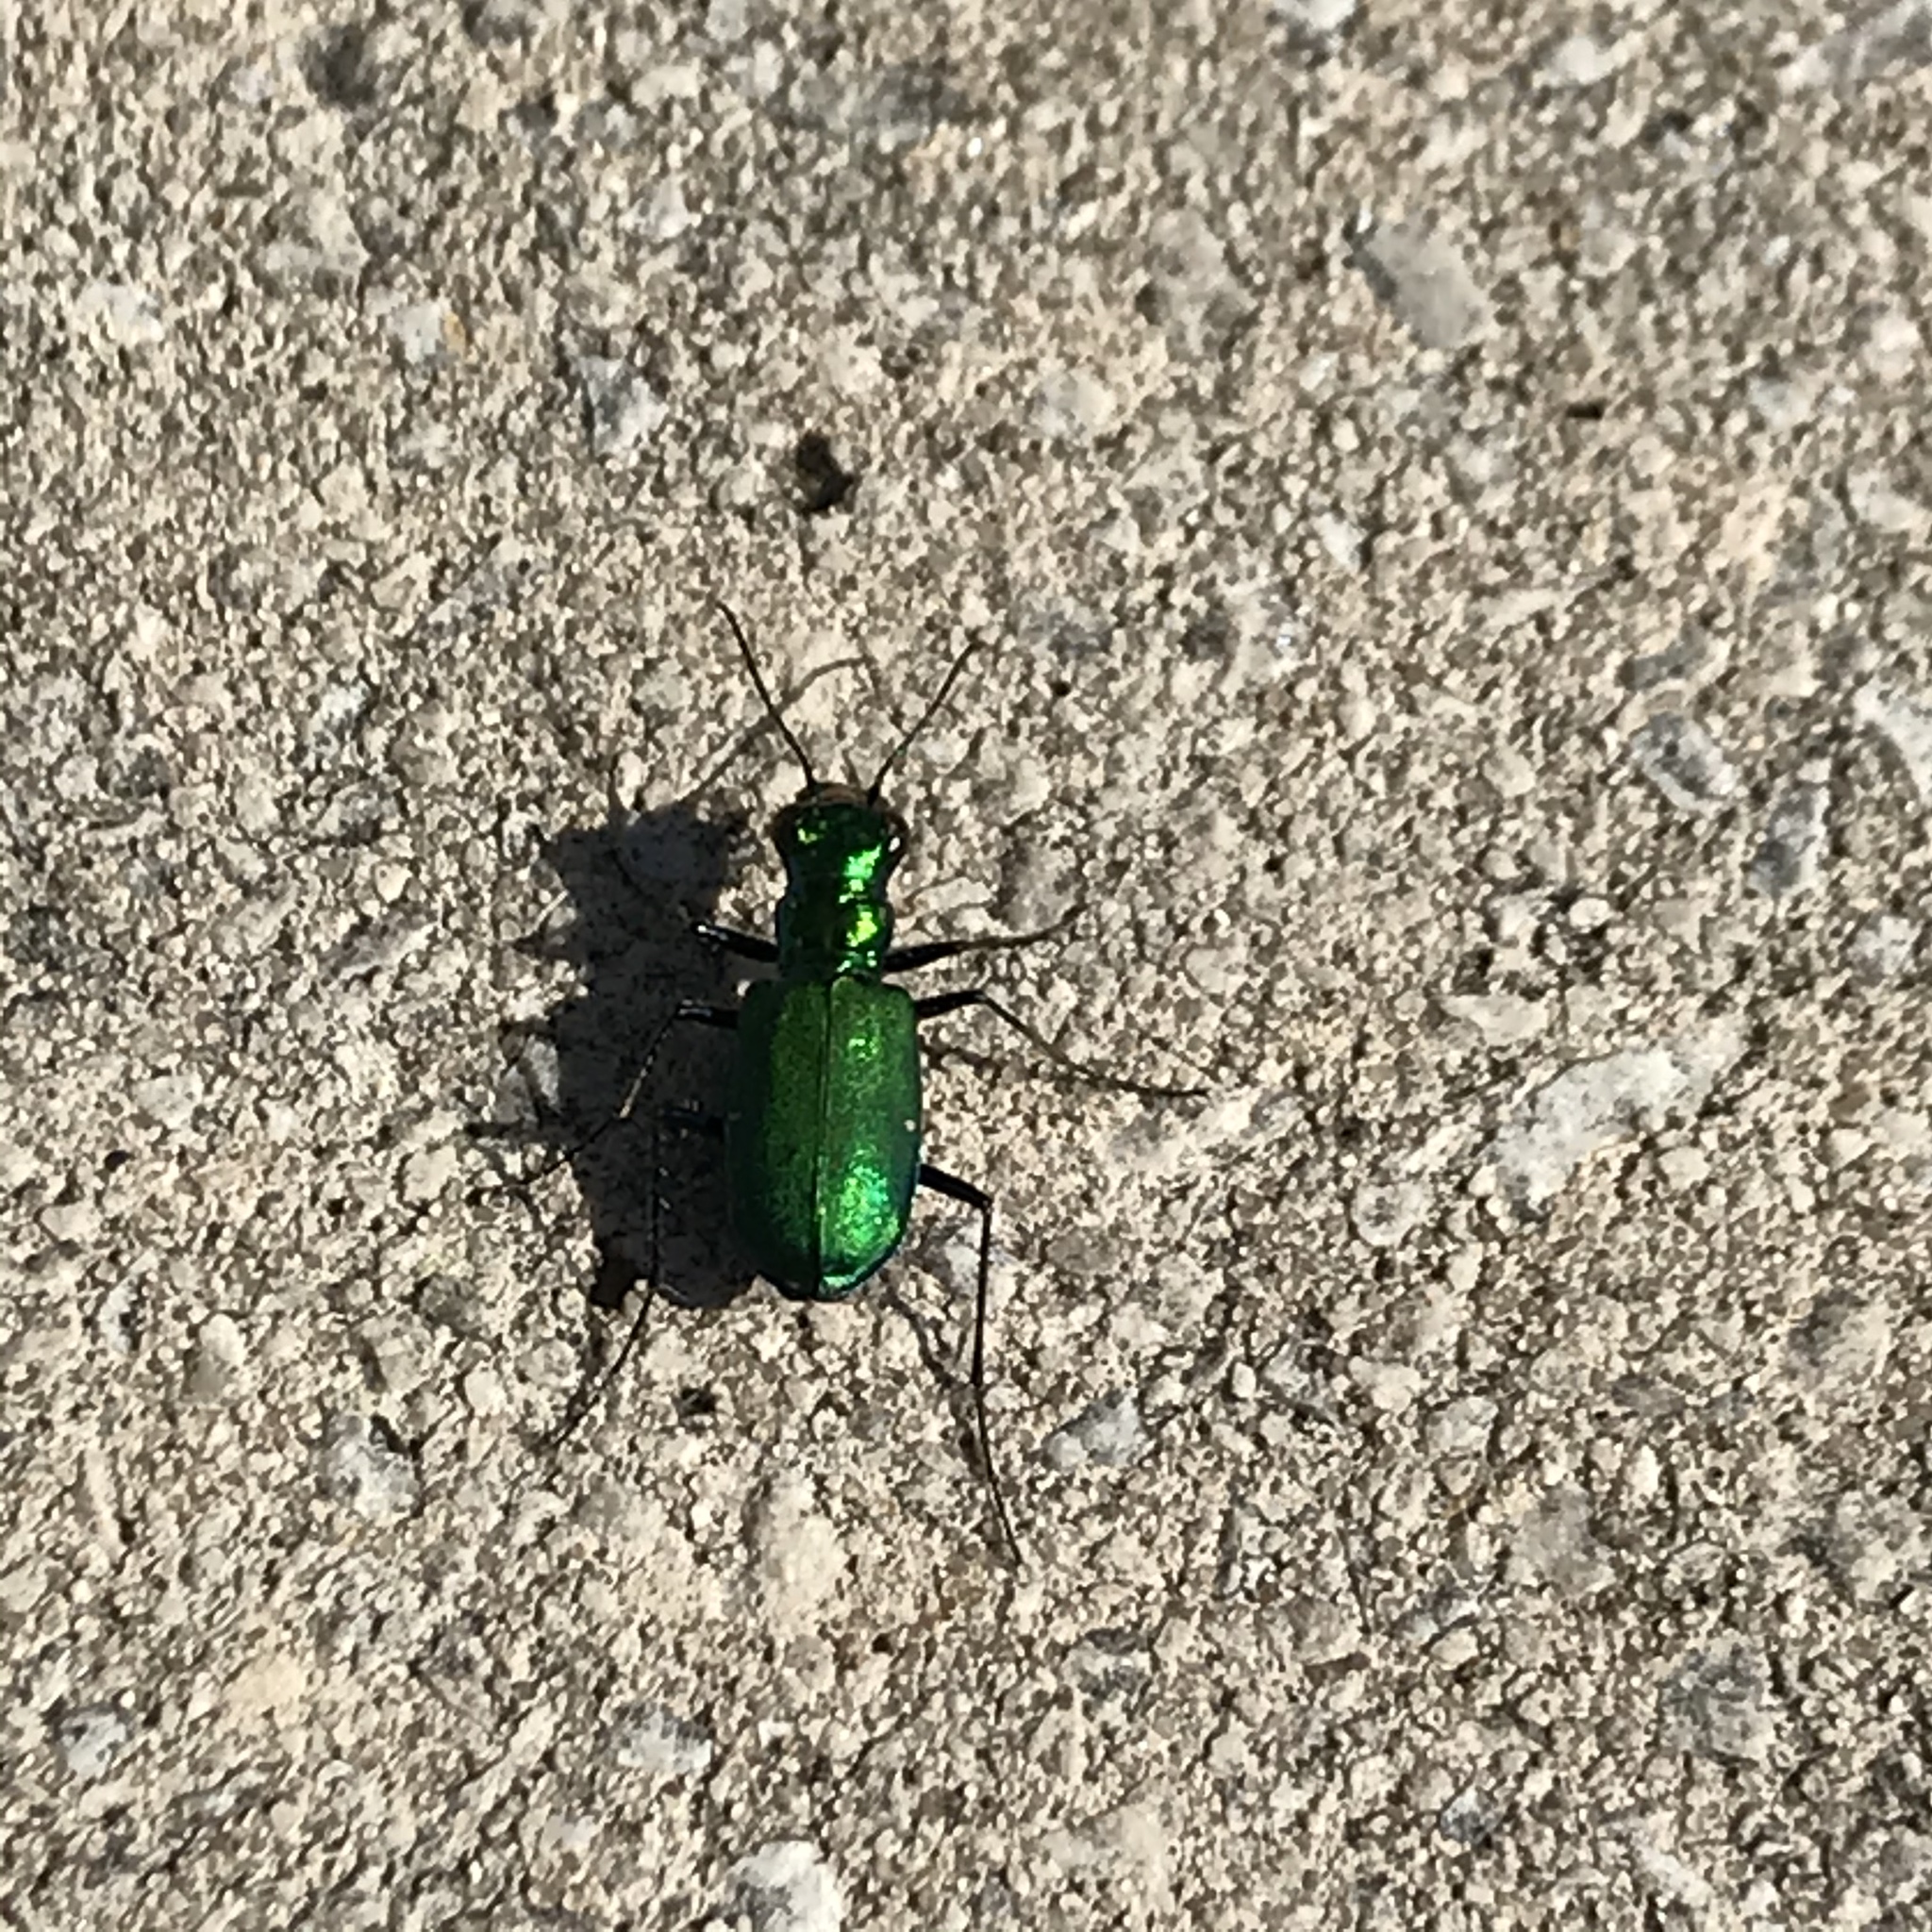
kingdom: Animalia
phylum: Arthropoda
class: Insecta
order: Coleoptera
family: Carabidae
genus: Cicindela
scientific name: Cicindela sexguttata
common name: Six-spotted tiger beetle
